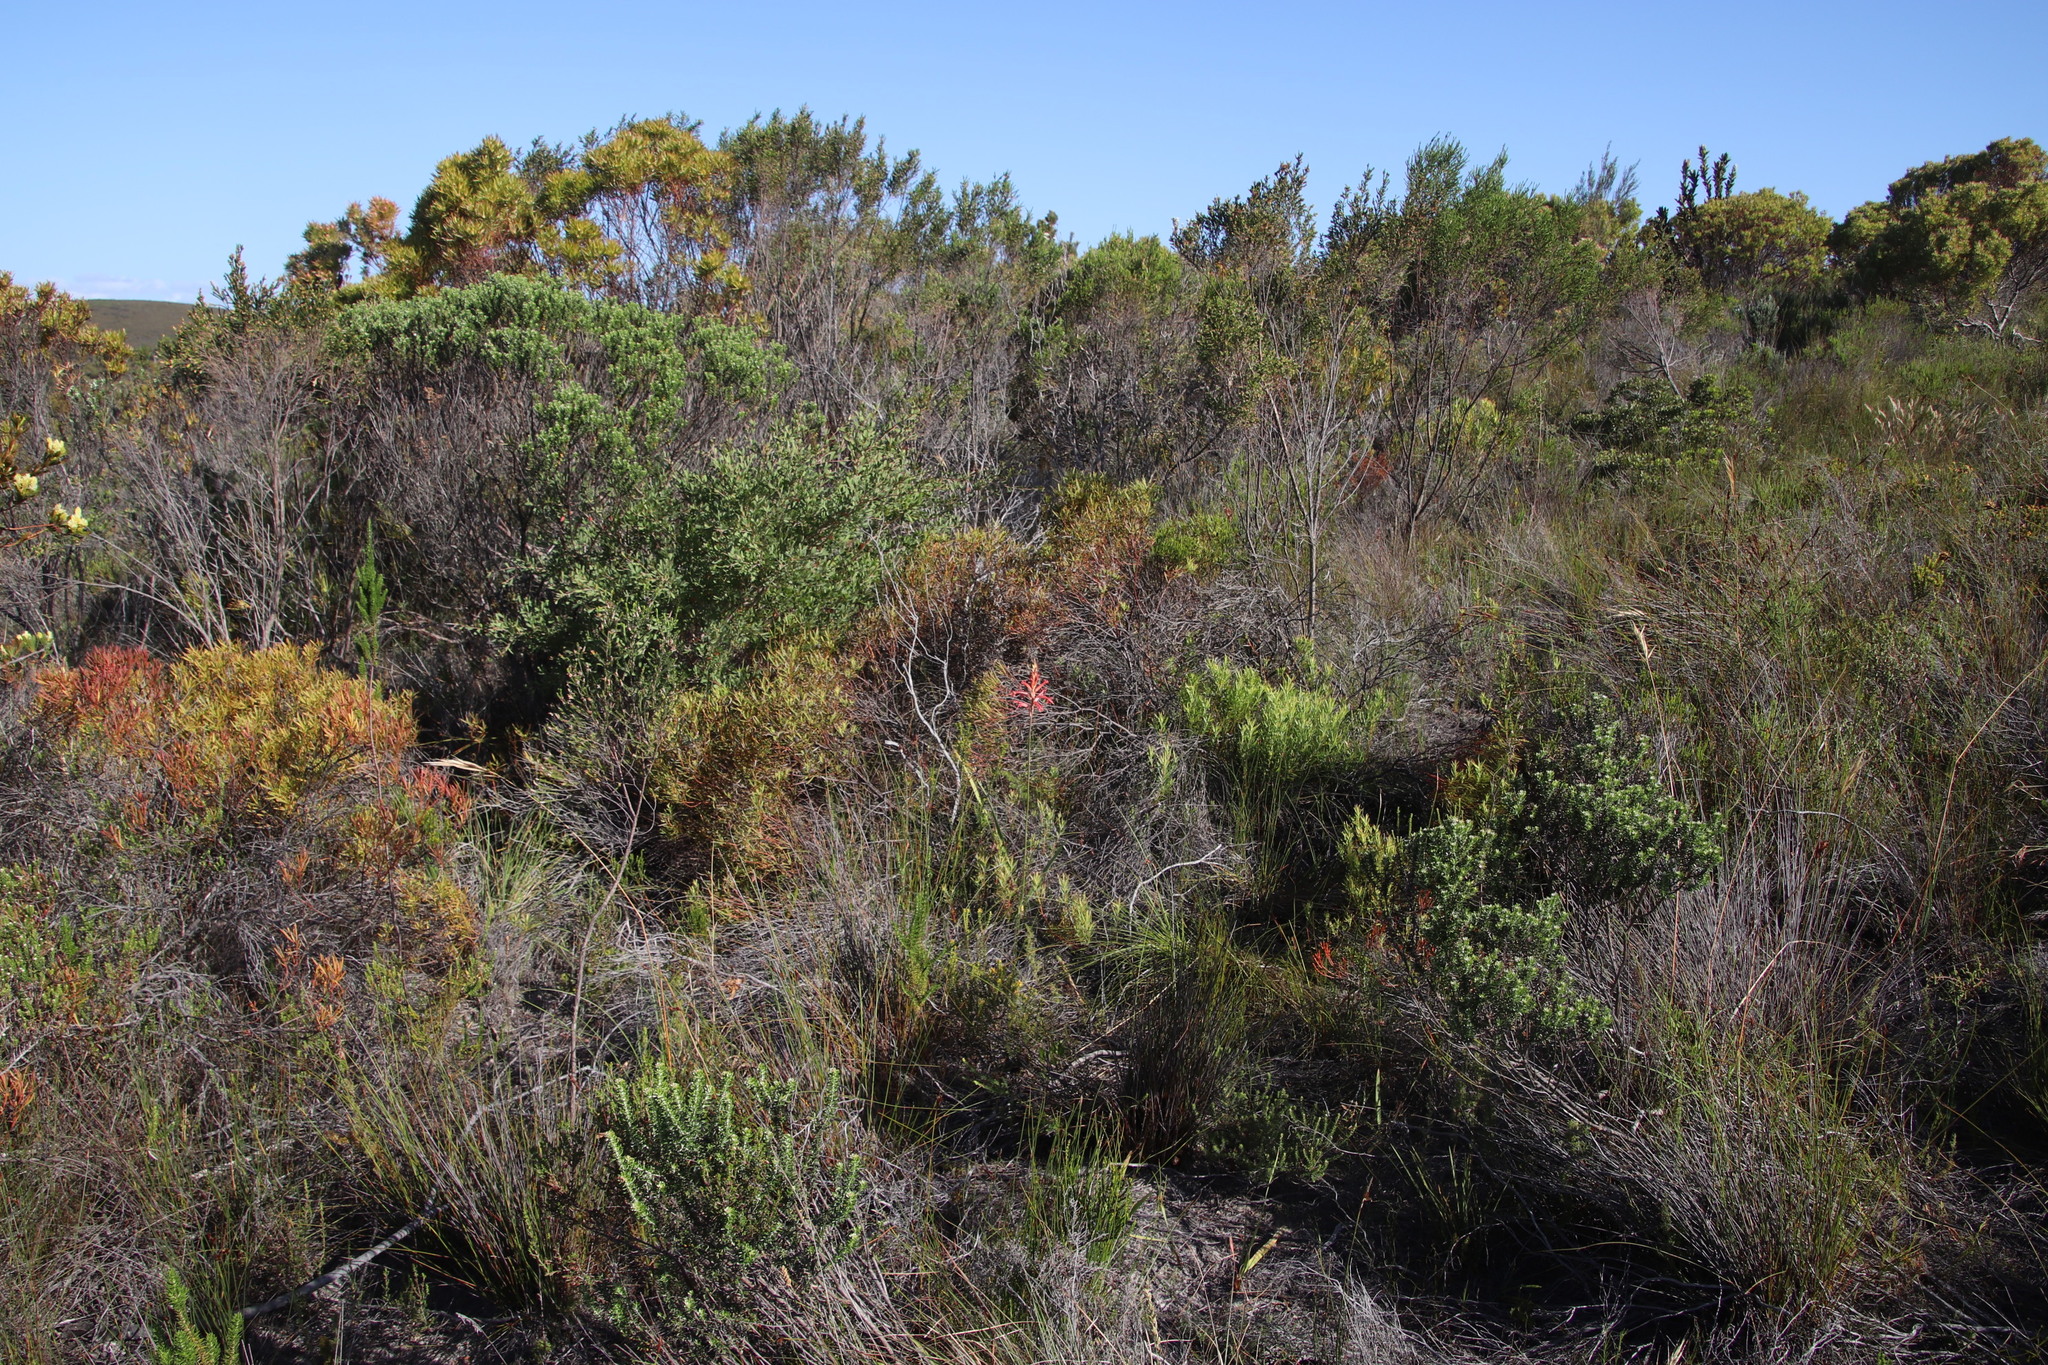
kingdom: Plantae
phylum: Tracheophyta
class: Liliopsida
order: Asparagales
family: Iridaceae
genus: Tritoniopsis
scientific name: Tritoniopsis antholyza
